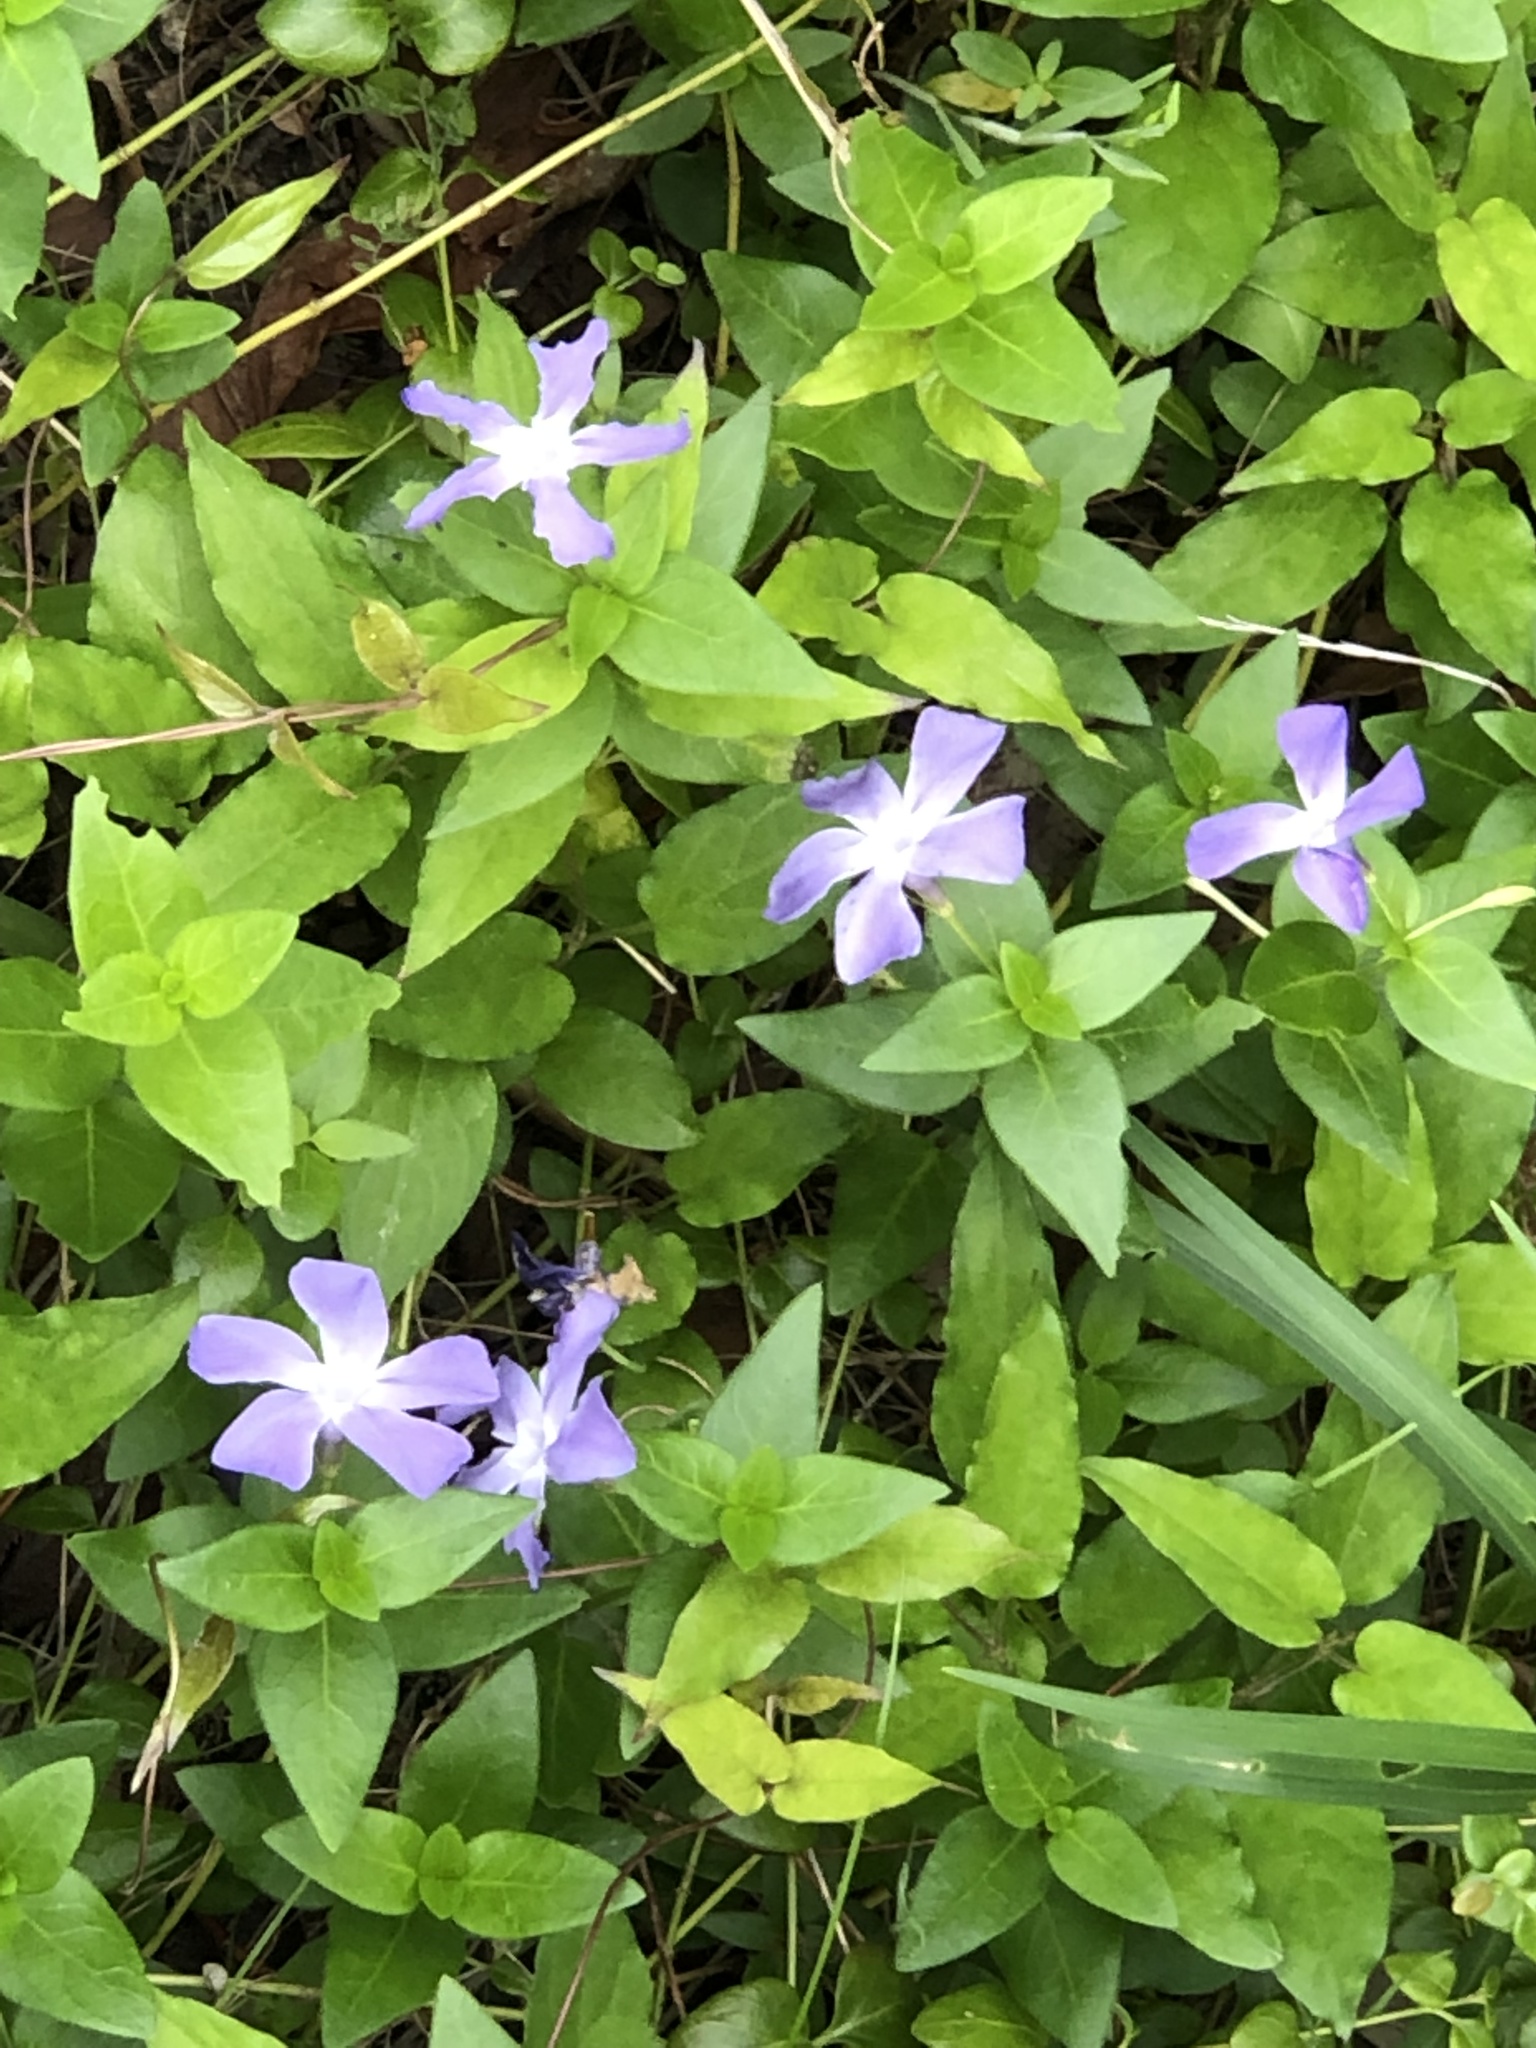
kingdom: Plantae
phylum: Tracheophyta
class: Magnoliopsida
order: Gentianales
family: Apocynaceae
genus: Vinca
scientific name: Vinca major
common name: Greater periwinkle
